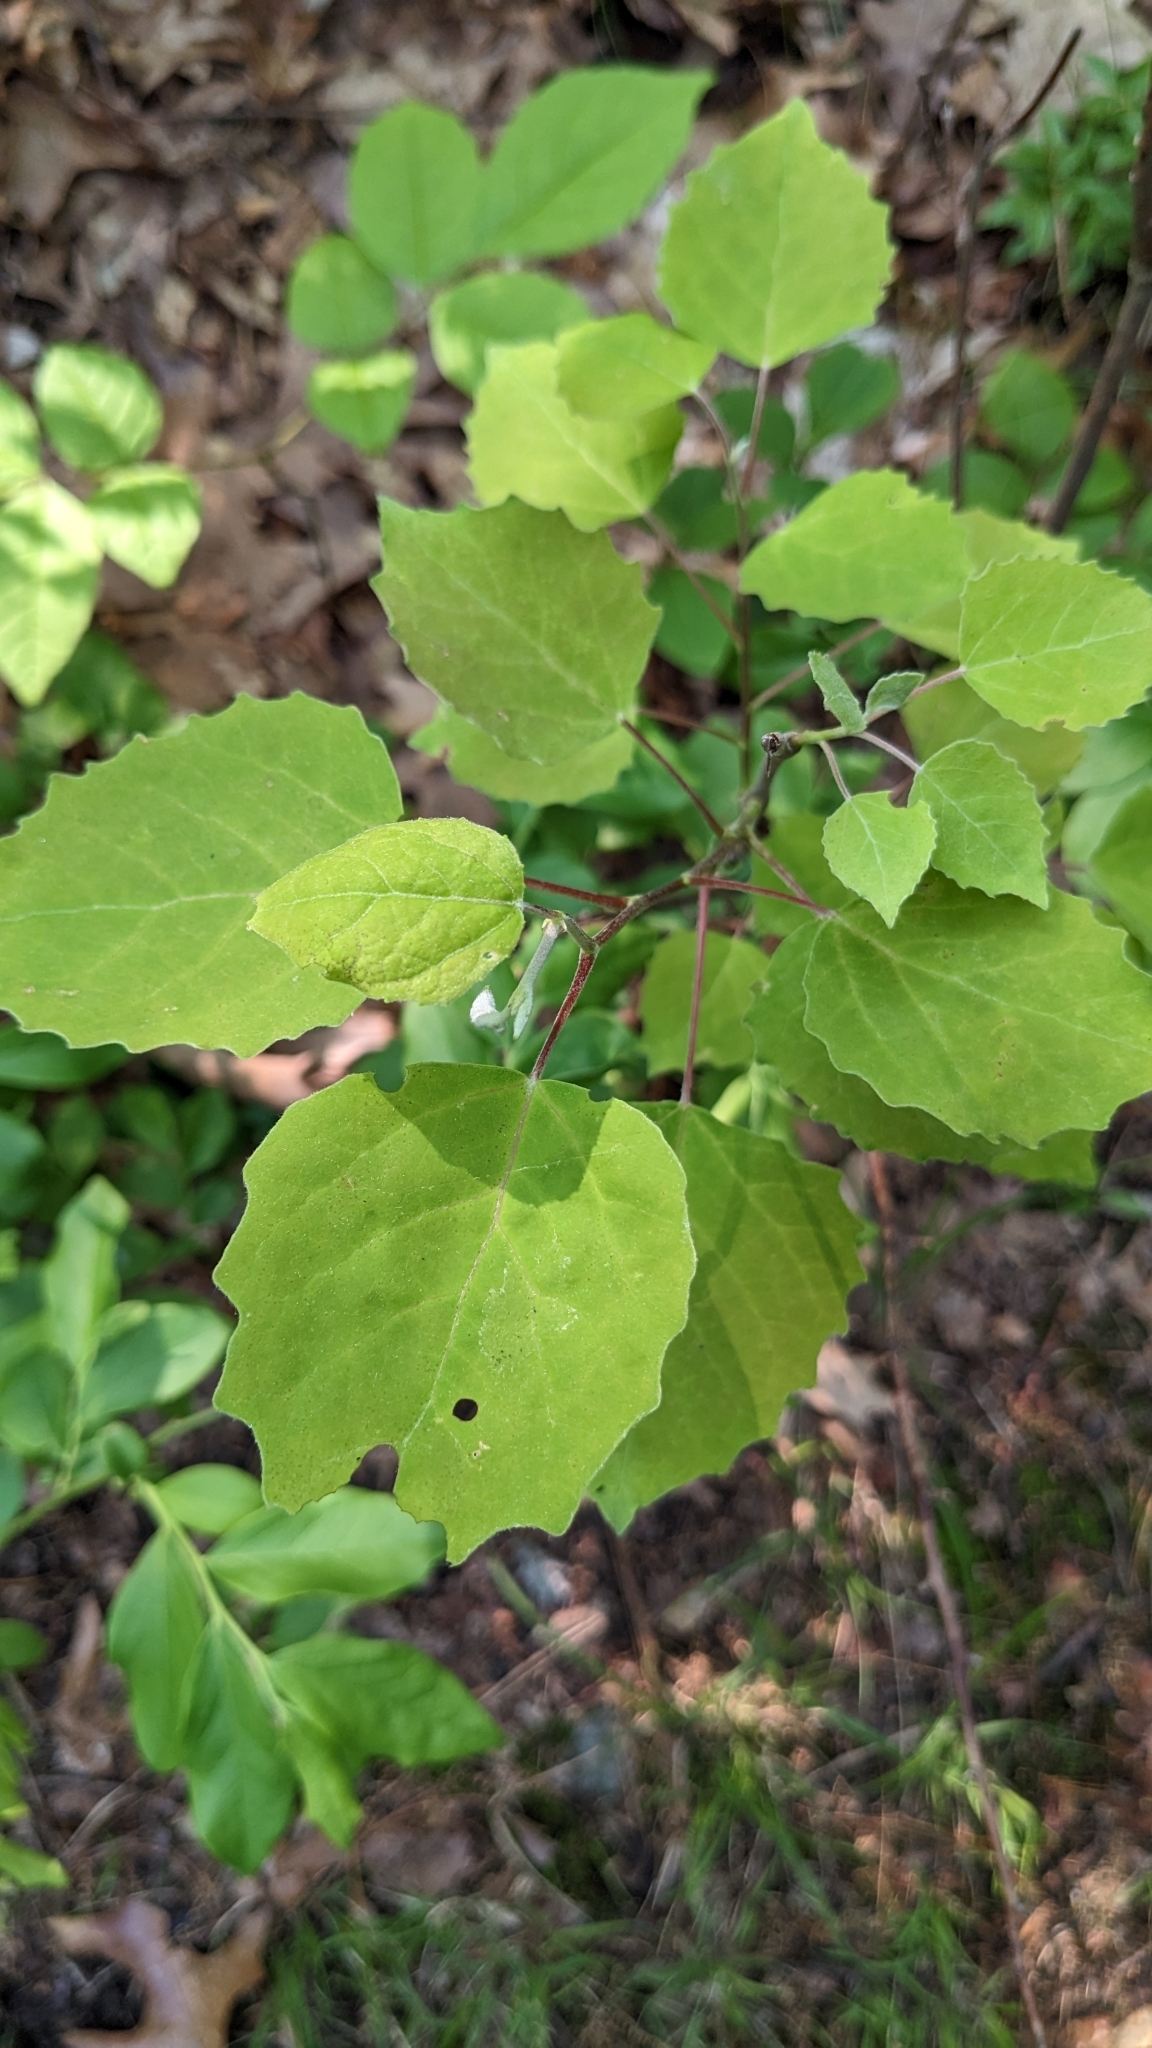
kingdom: Plantae
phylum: Tracheophyta
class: Magnoliopsida
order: Malpighiales
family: Salicaceae
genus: Populus
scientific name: Populus grandidentata
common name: Bigtooth aspen
